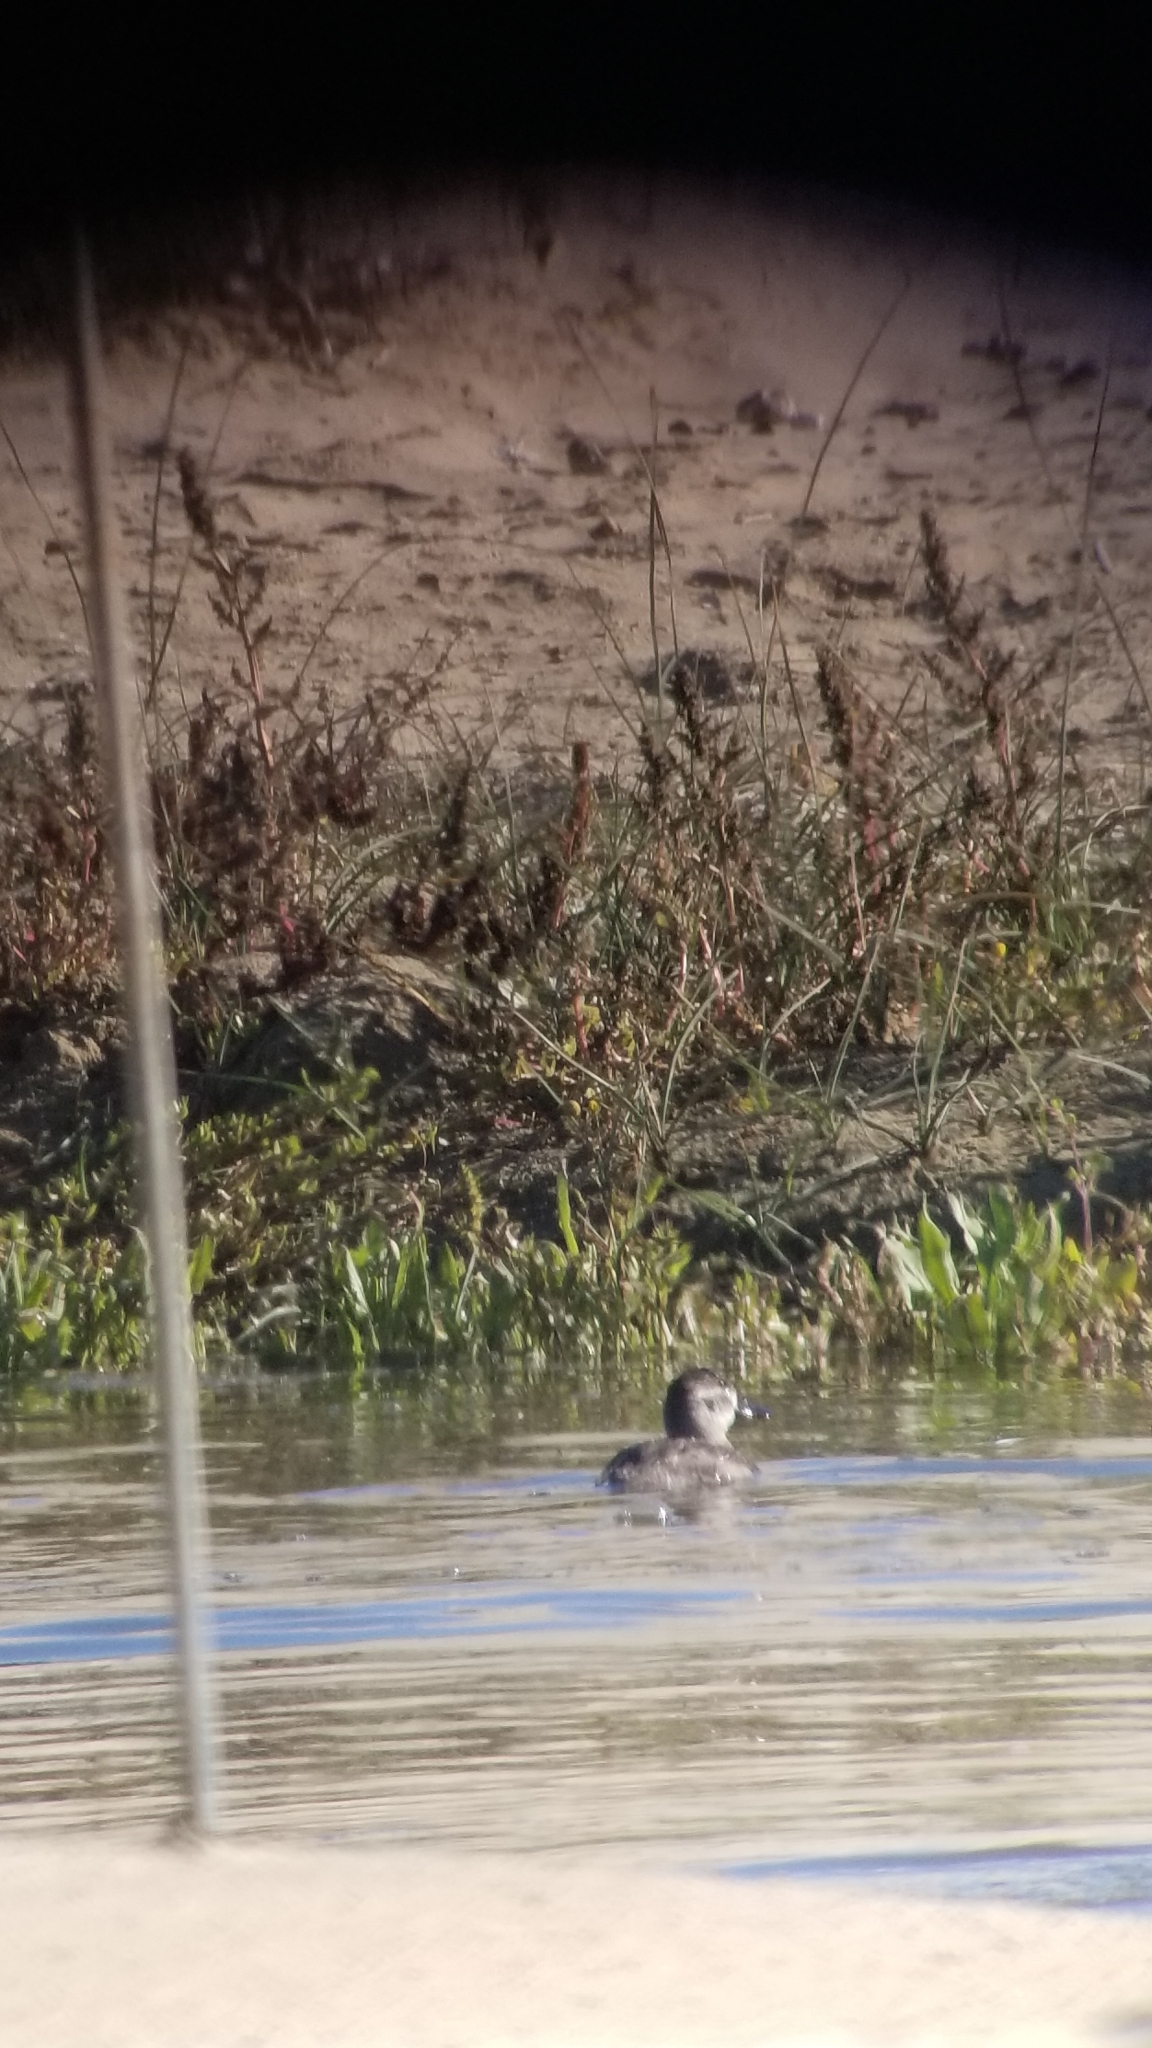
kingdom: Animalia
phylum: Chordata
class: Aves
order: Anseriformes
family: Anatidae
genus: Oxyura
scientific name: Oxyura jamaicensis
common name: Ruddy duck
